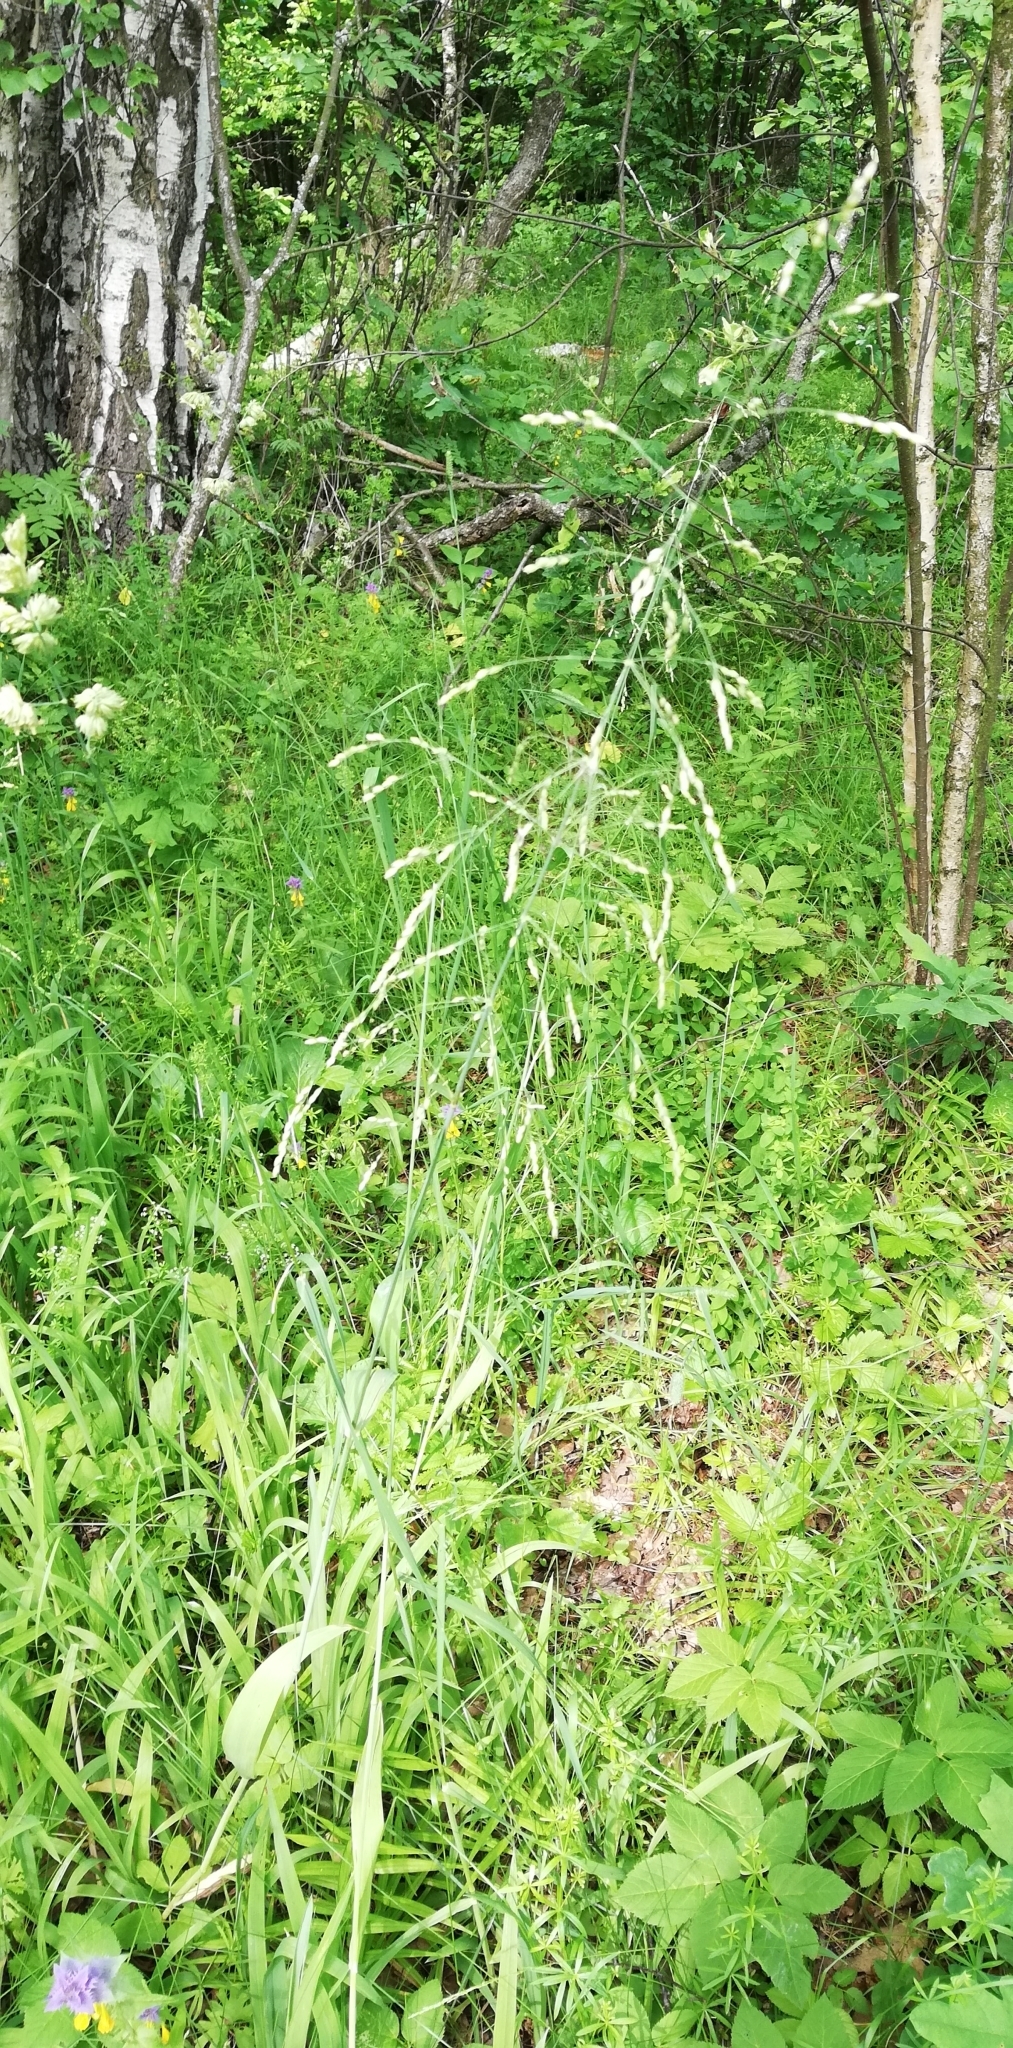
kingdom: Plantae
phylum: Tracheophyta
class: Liliopsida
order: Poales
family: Poaceae
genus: Milium
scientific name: Milium effusum
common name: Wood millet
